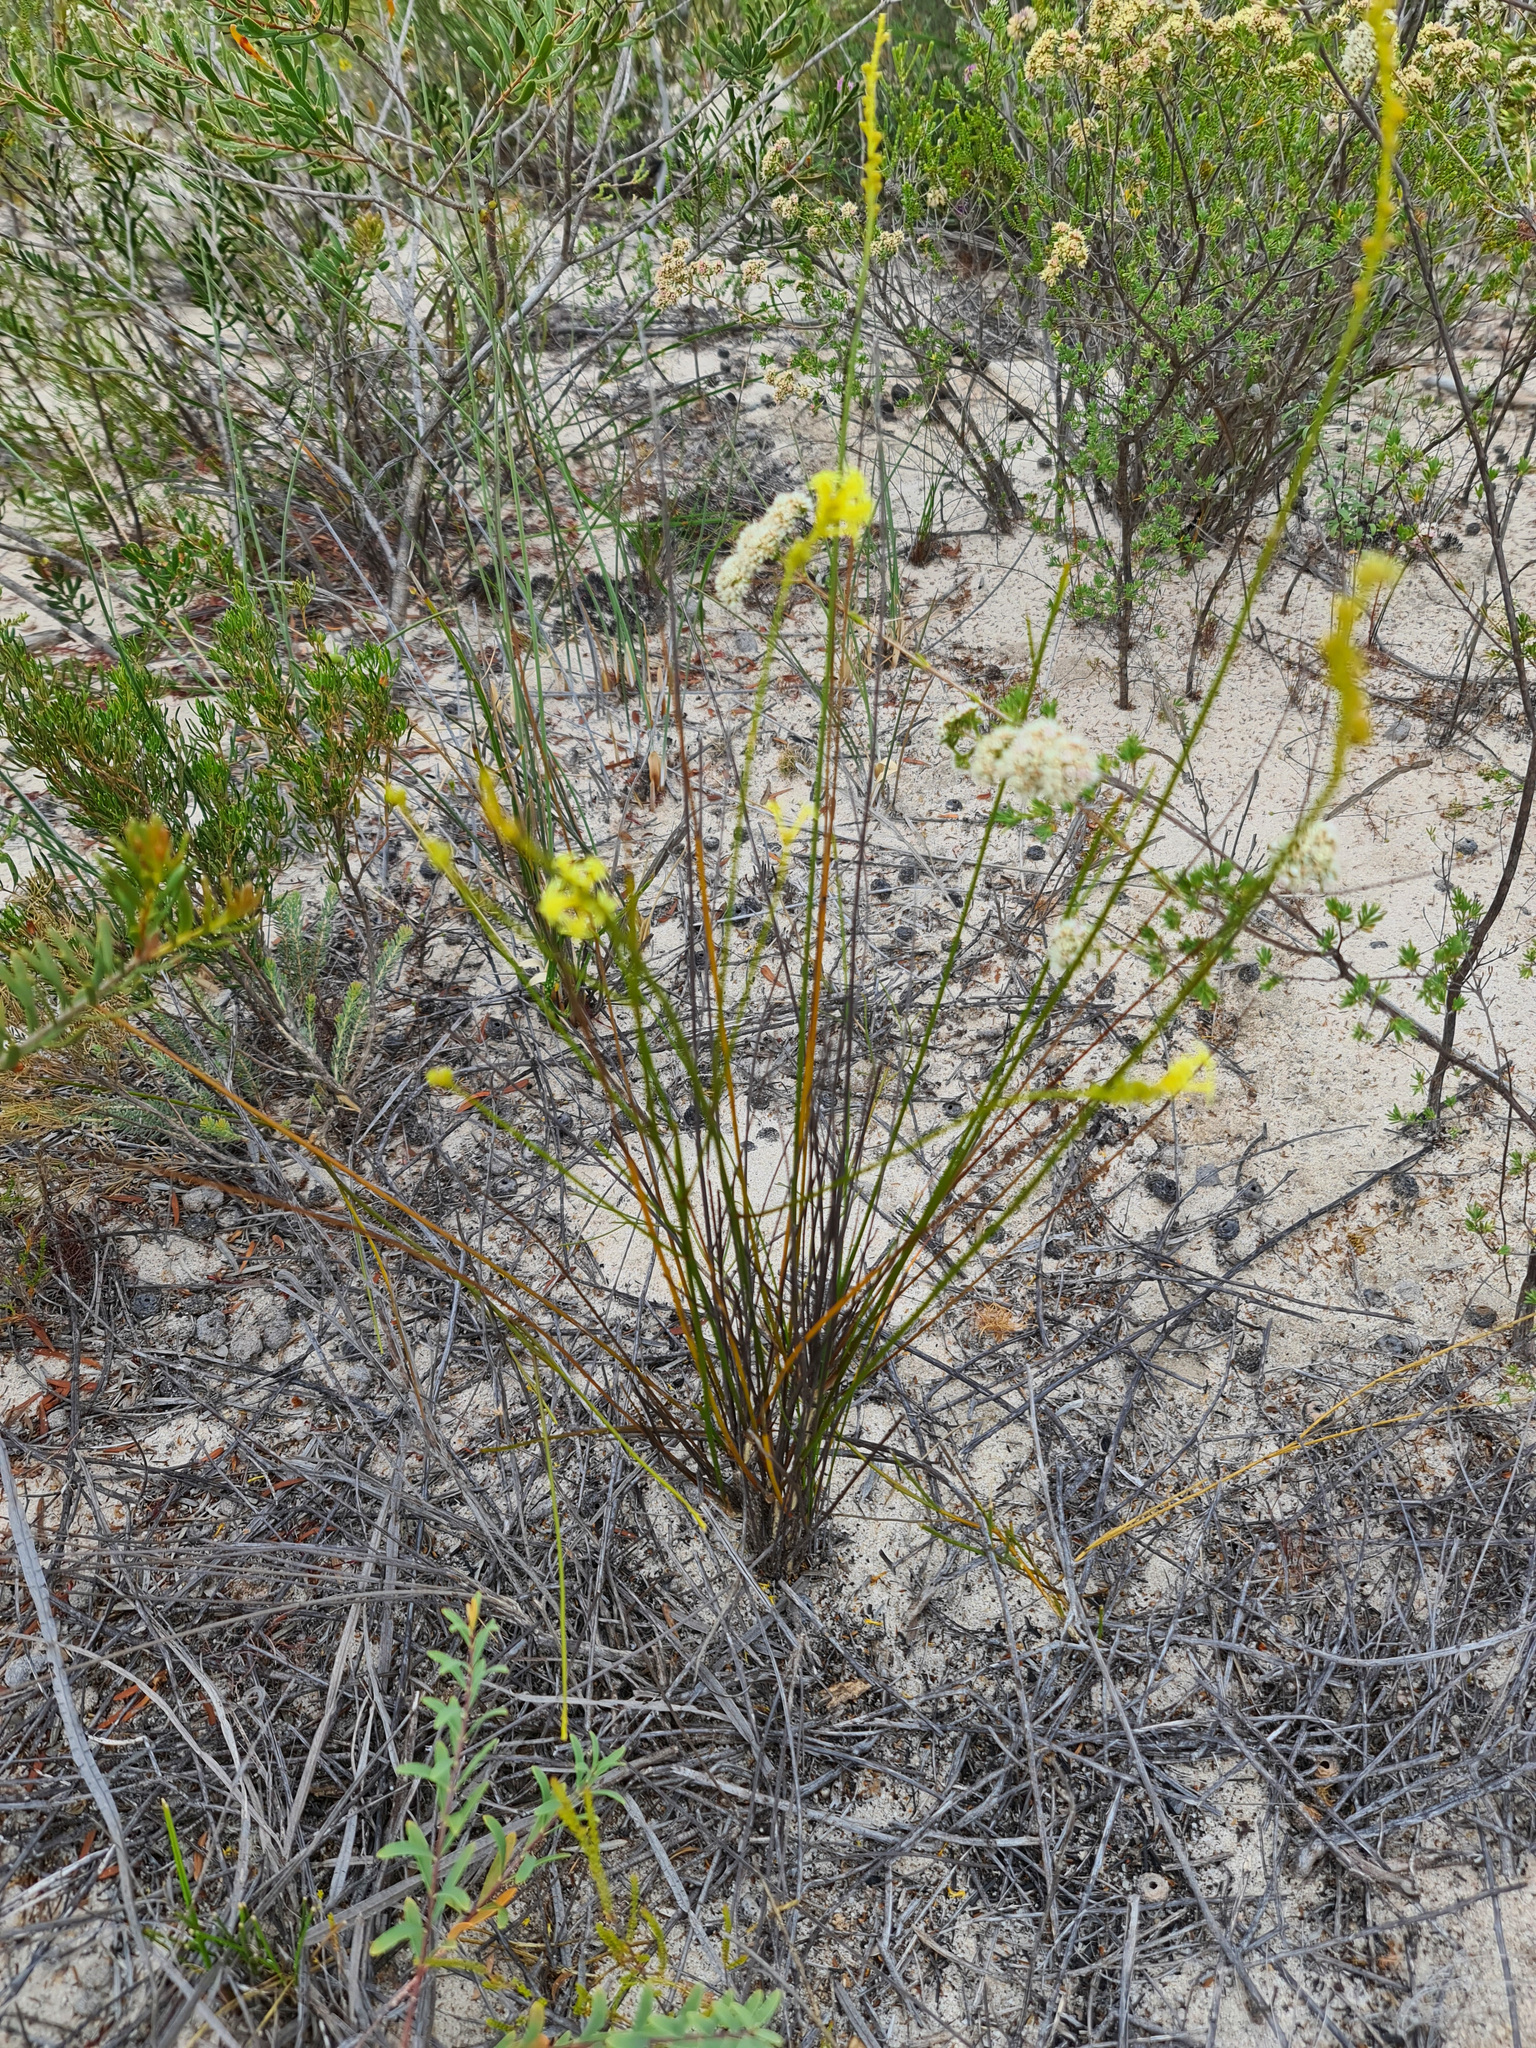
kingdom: Plantae
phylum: Tracheophyta
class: Magnoliopsida
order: Celastrales
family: Celastraceae
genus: Stackhousia
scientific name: Stackhousia dielsii
